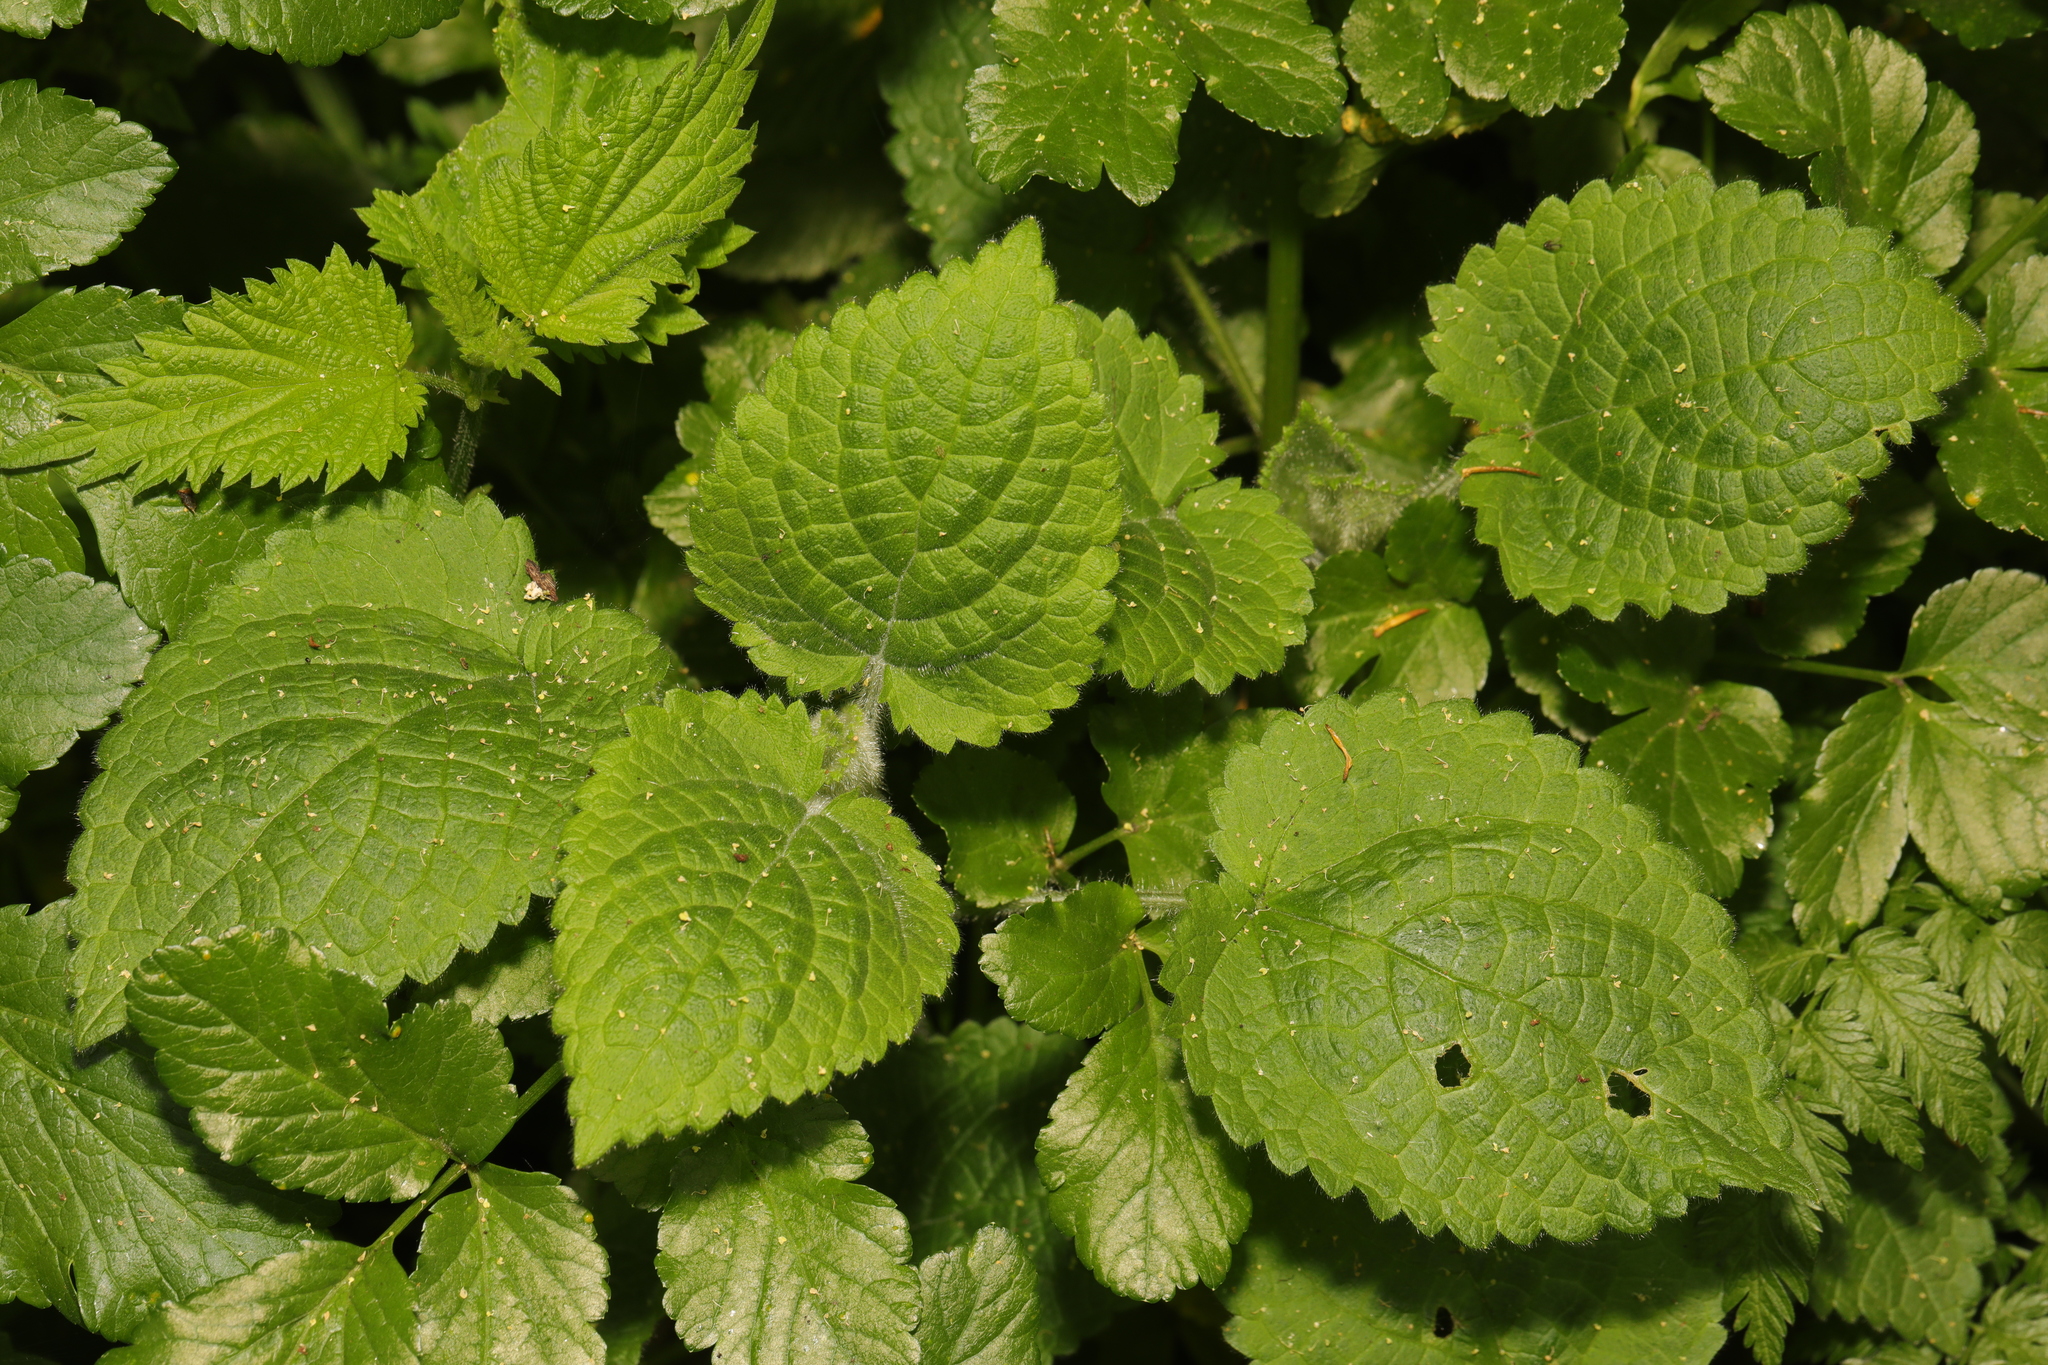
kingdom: Plantae
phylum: Tracheophyta
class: Magnoliopsida
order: Lamiales
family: Lamiaceae
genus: Stachys
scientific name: Stachys sylvatica
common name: Hedge woundwort
